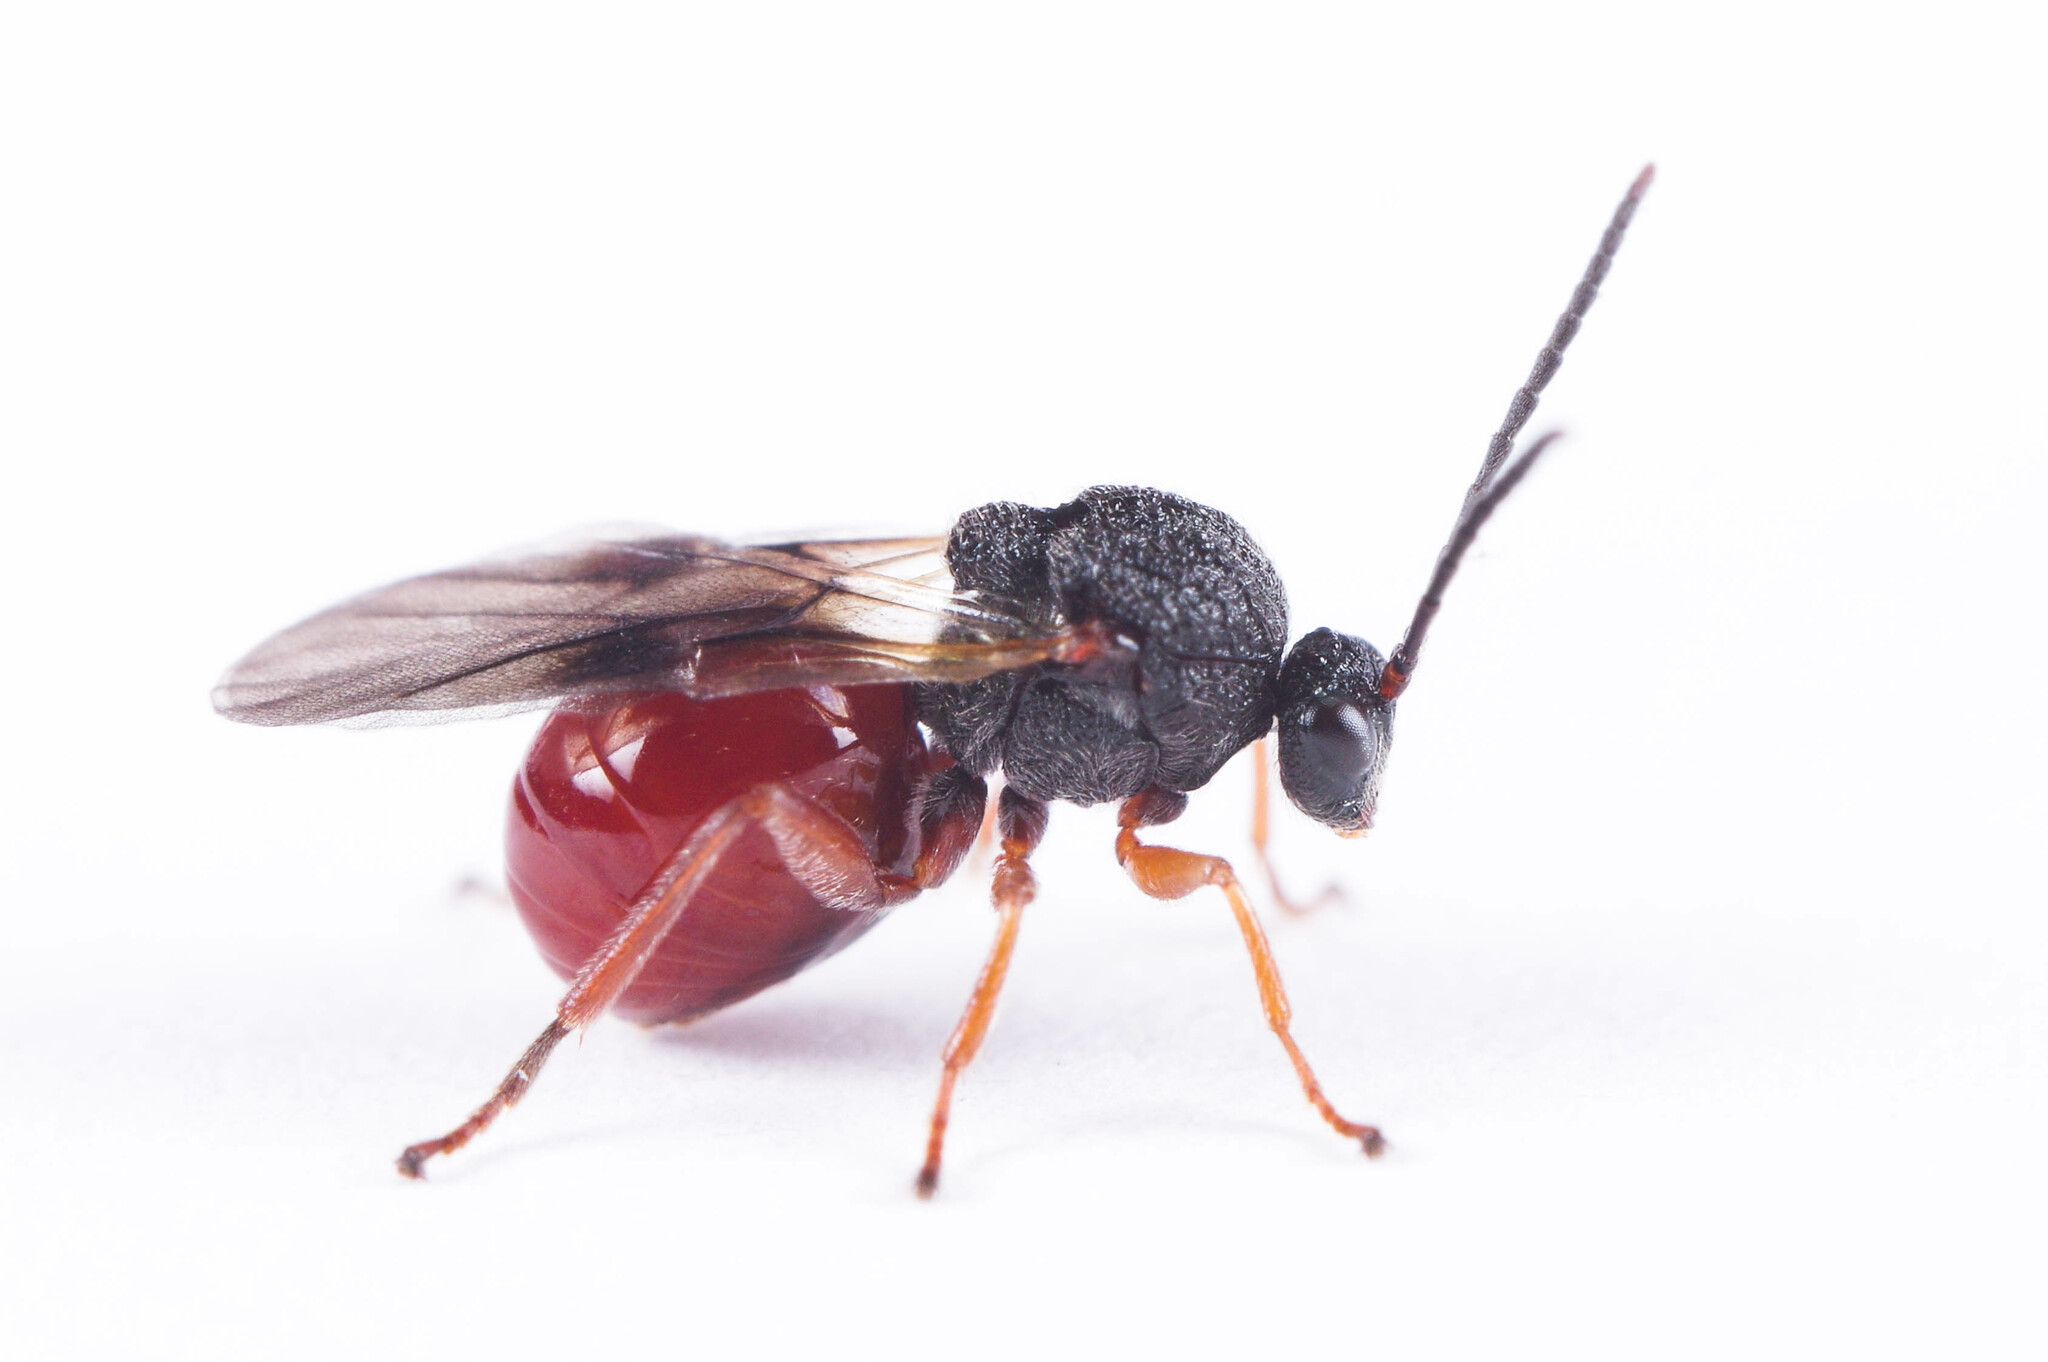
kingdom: Animalia
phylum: Arthropoda
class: Insecta
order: Hymenoptera
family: Cynipidae
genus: Amphibolips
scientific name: Amphibolips
